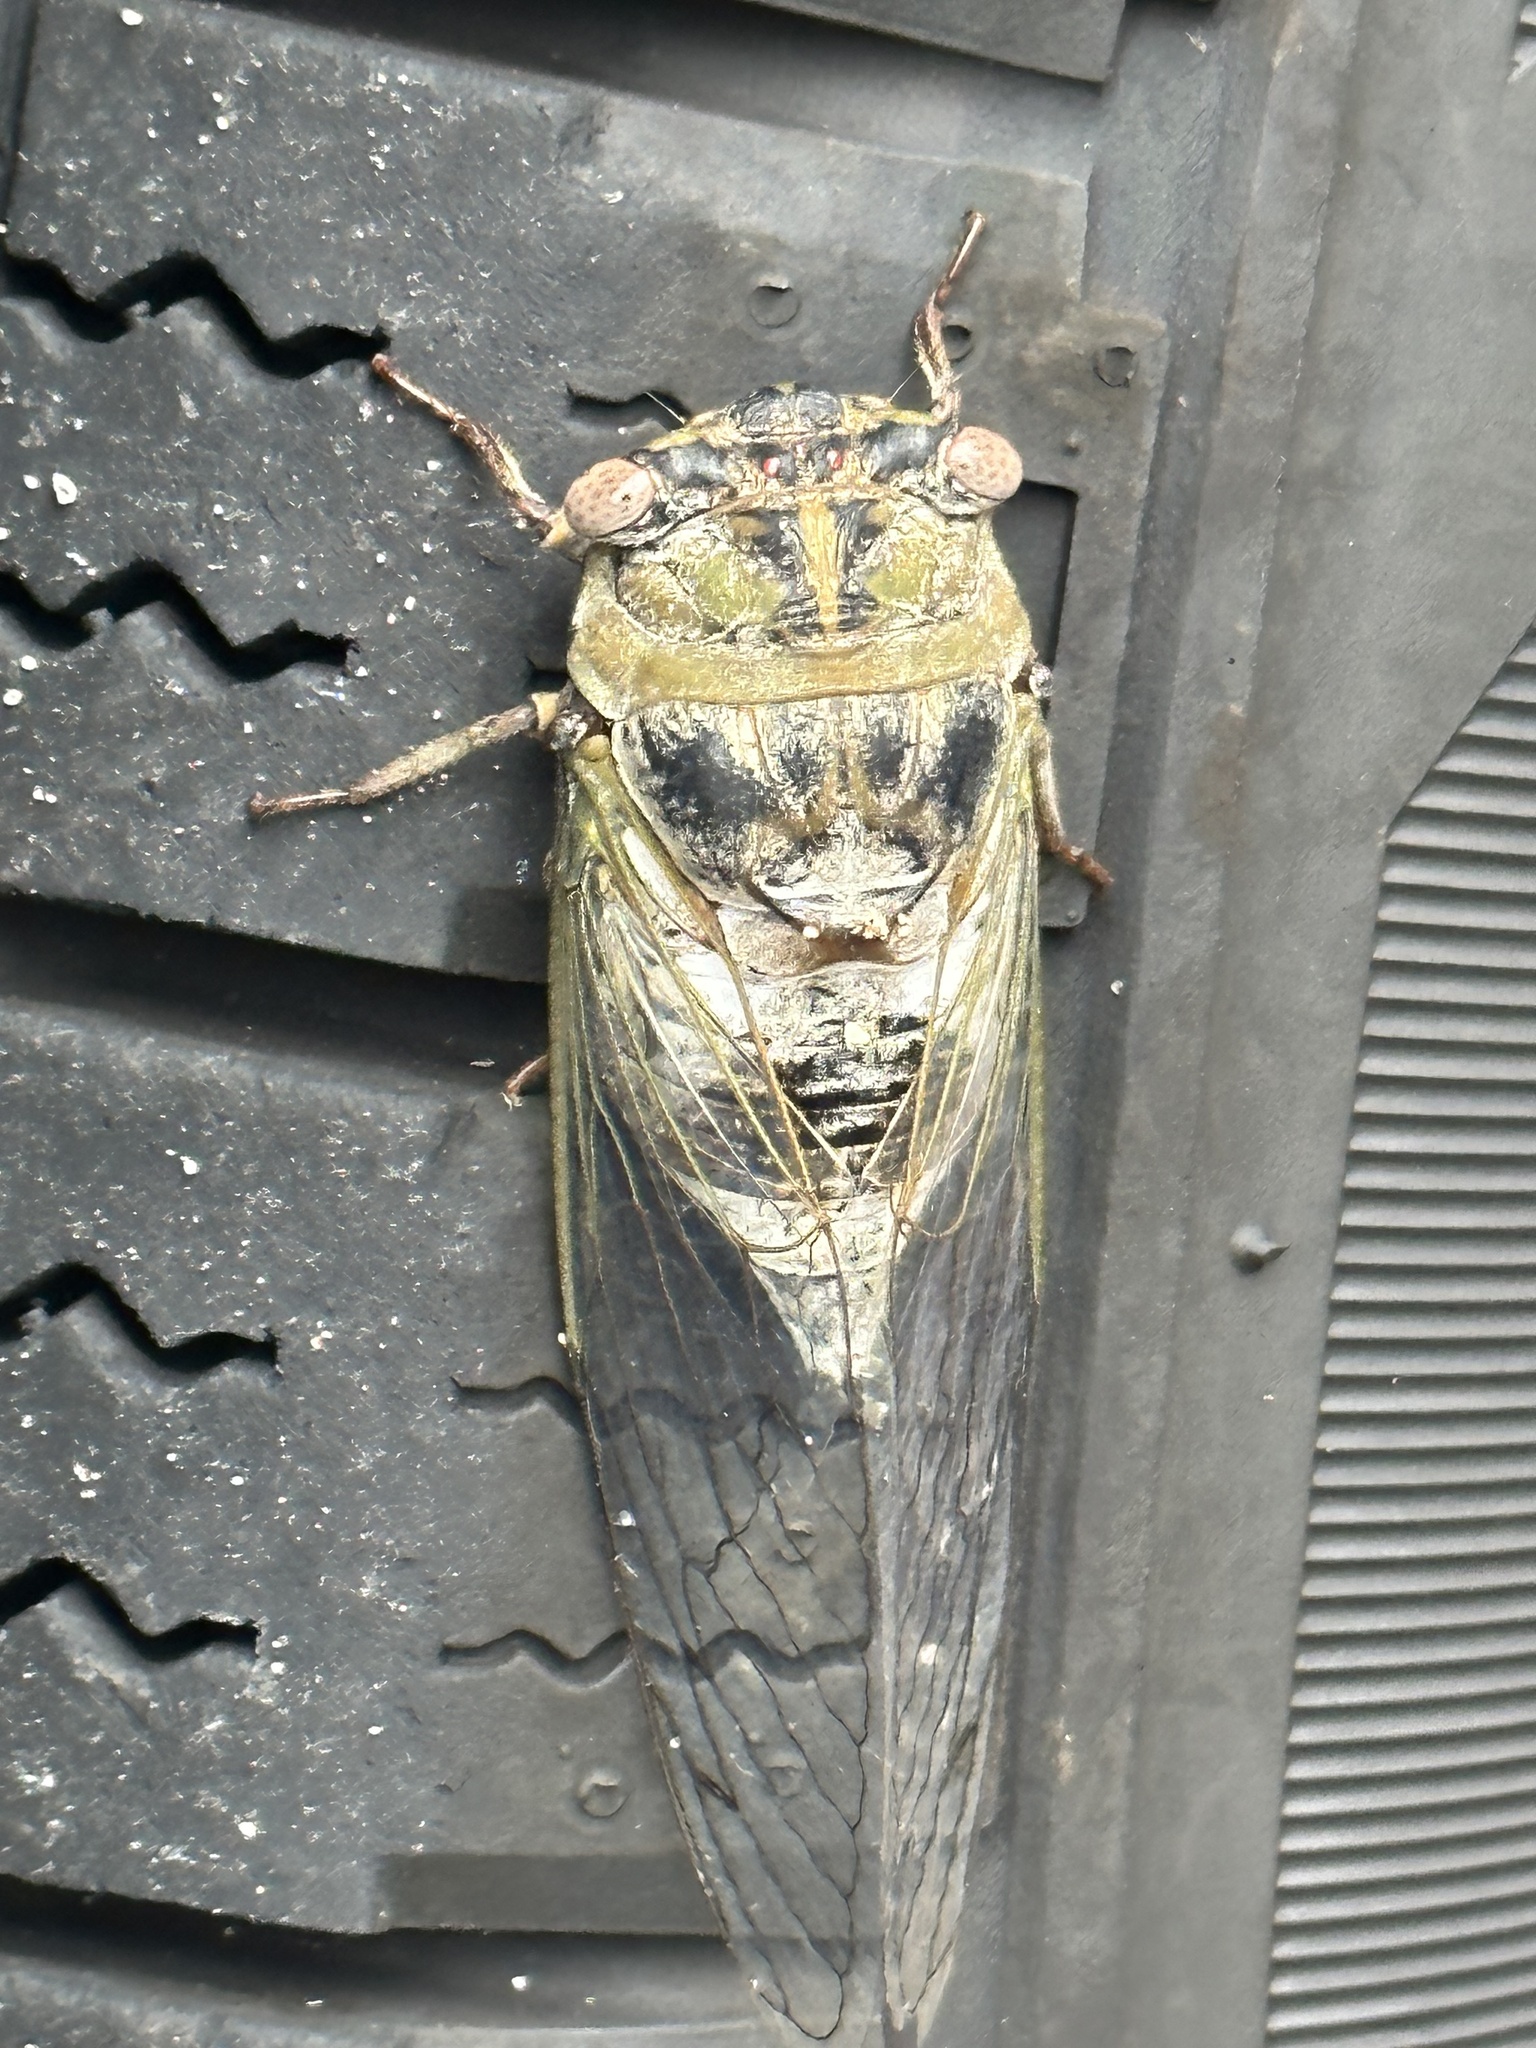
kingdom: Animalia
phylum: Arthropoda
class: Insecta
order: Hemiptera
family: Cicadidae
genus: Diceroprocta
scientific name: Diceroprocta grossa
